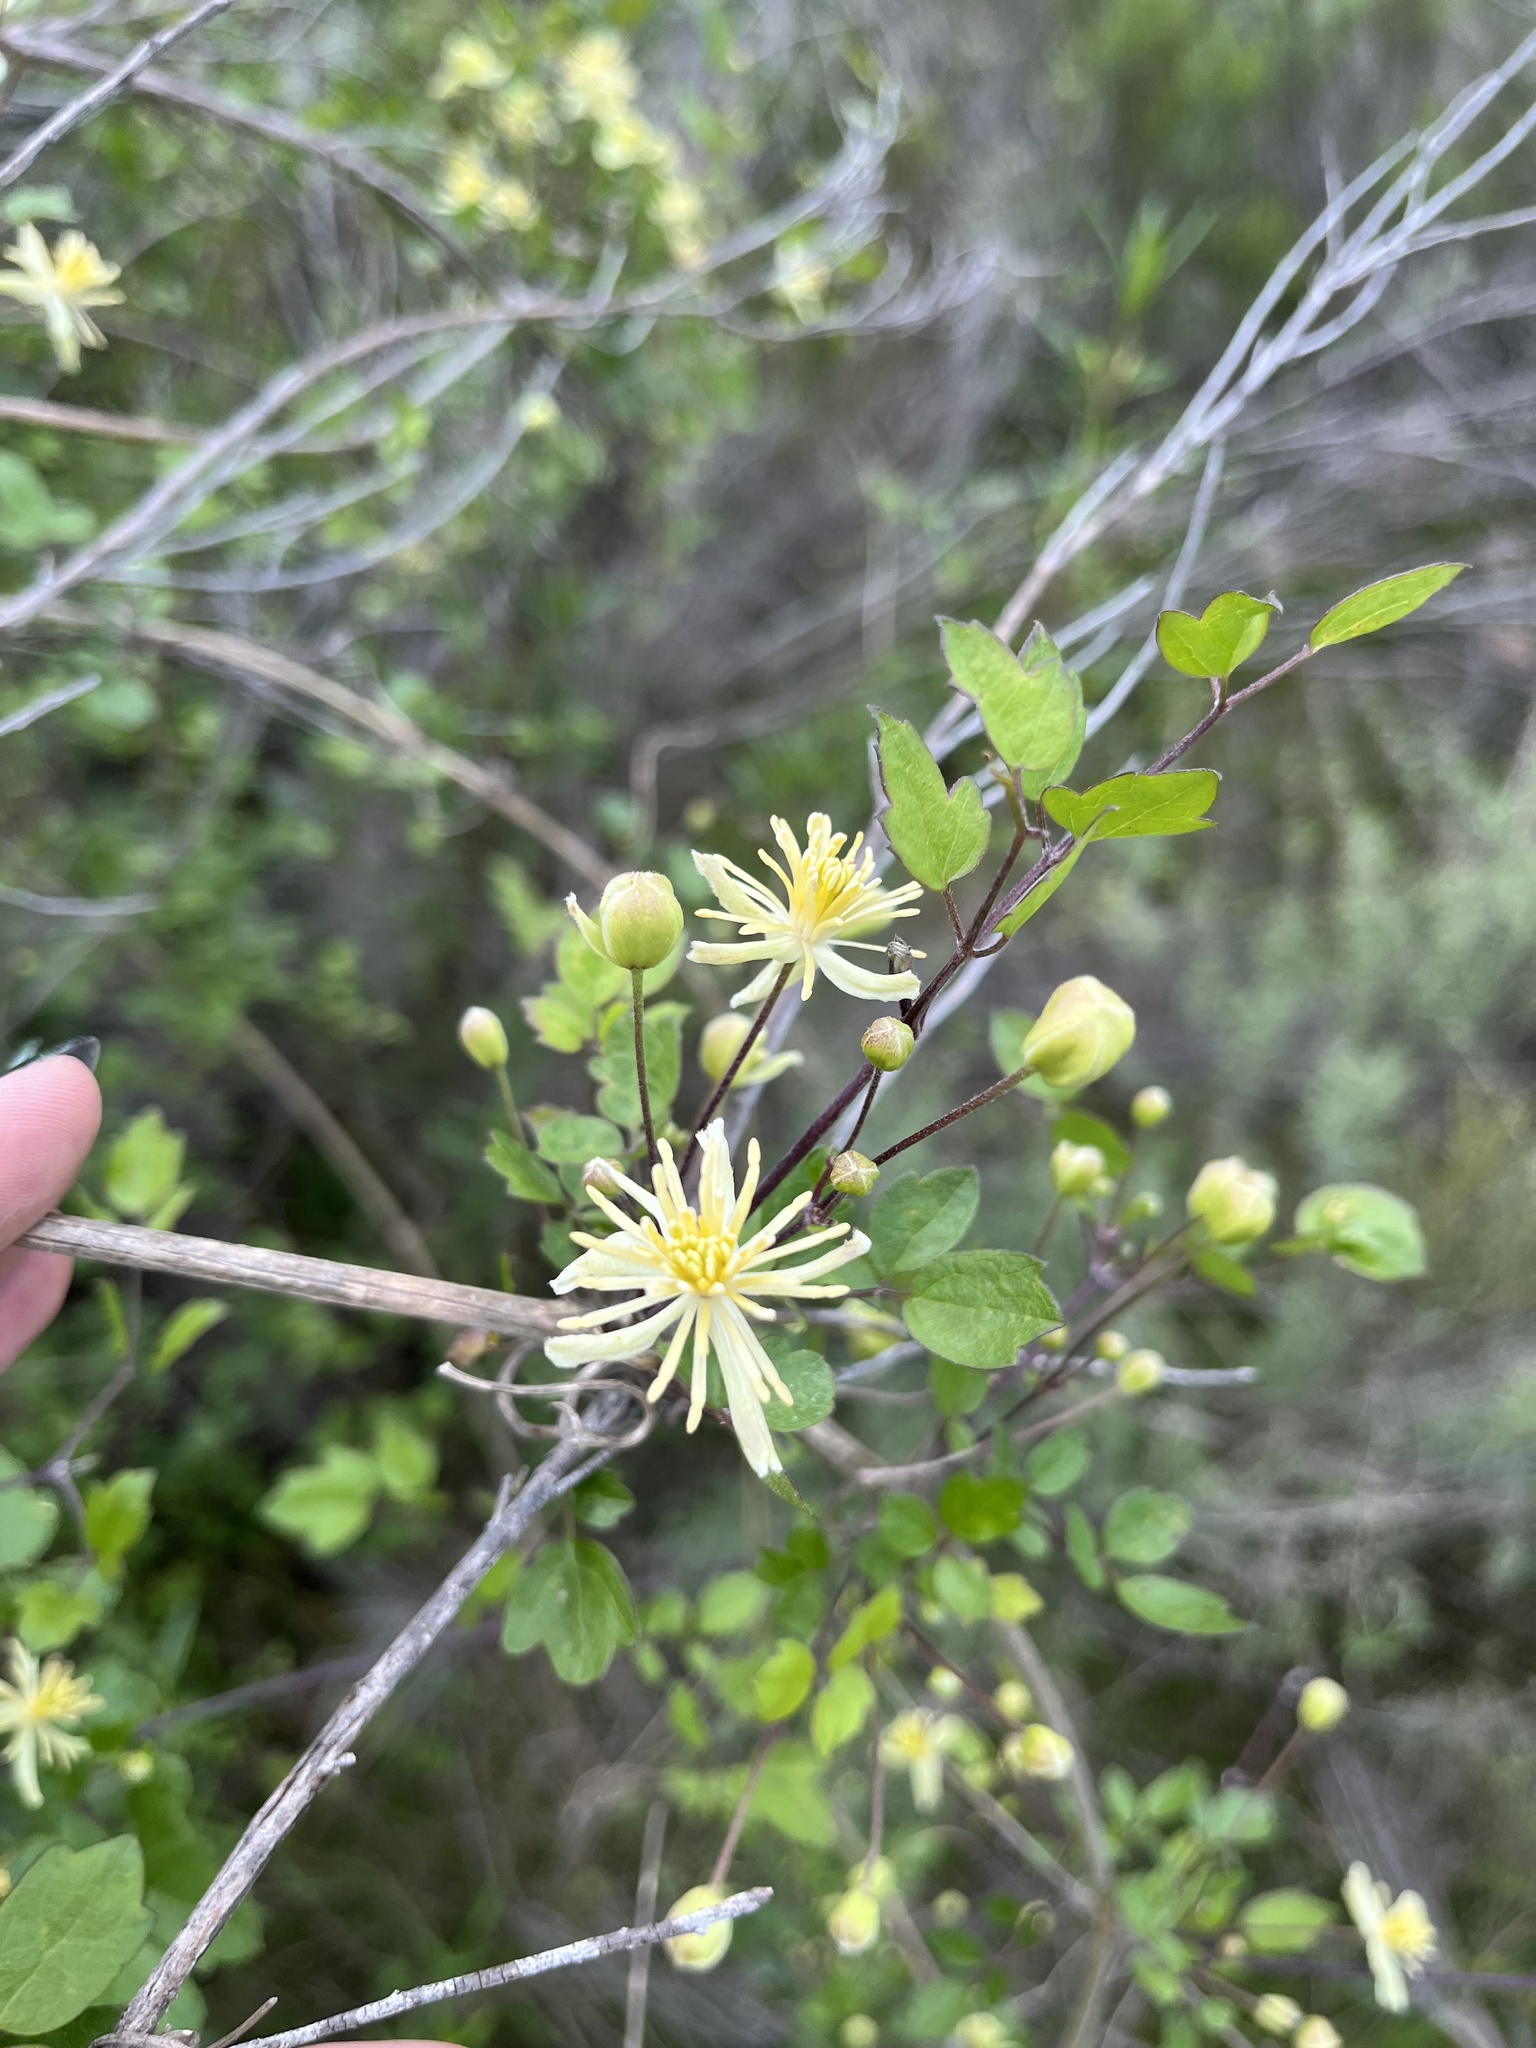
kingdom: Plantae
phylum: Tracheophyta
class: Magnoliopsida
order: Ranunculales
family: Ranunculaceae
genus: Clematis
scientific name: Clematis pauciflora
